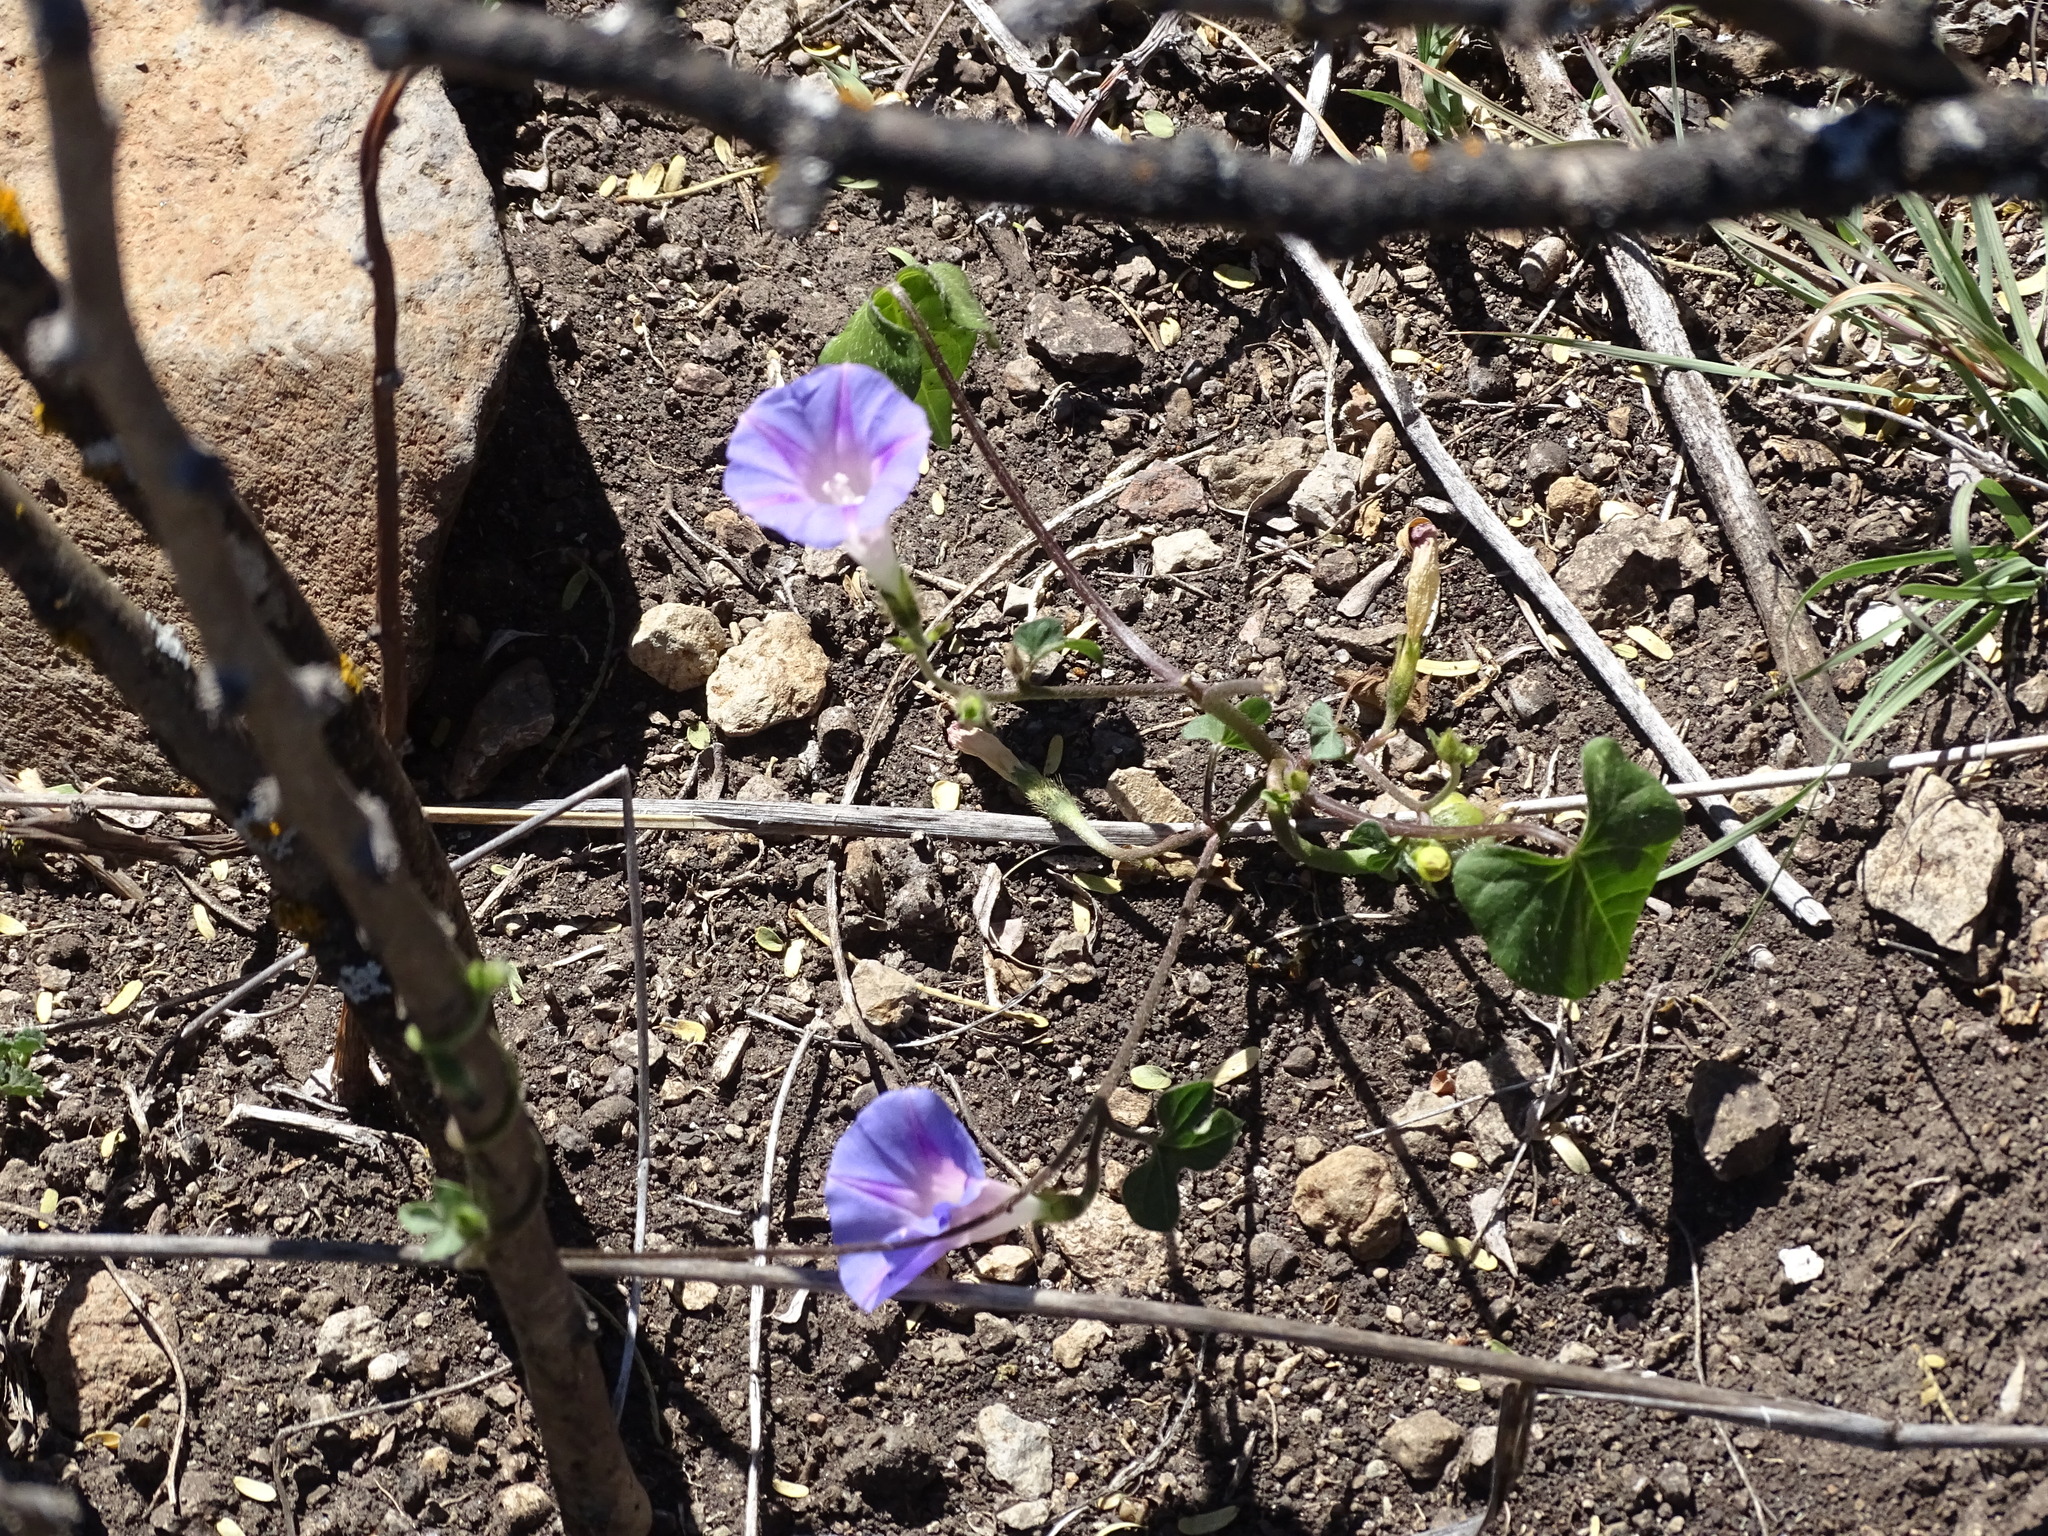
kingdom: Plantae
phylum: Tracheophyta
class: Magnoliopsida
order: Solanales
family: Convolvulaceae
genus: Ipomoea
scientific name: Ipomoea purpurea
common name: Common morning-glory
